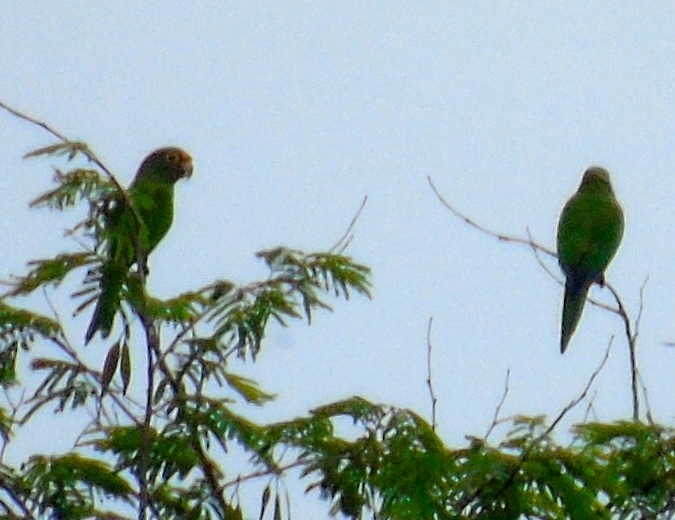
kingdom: Animalia
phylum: Chordata
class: Aves
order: Psittaciformes
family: Psittacidae
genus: Aratinga
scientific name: Aratinga canicularis
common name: Orange-fronted parakeet
